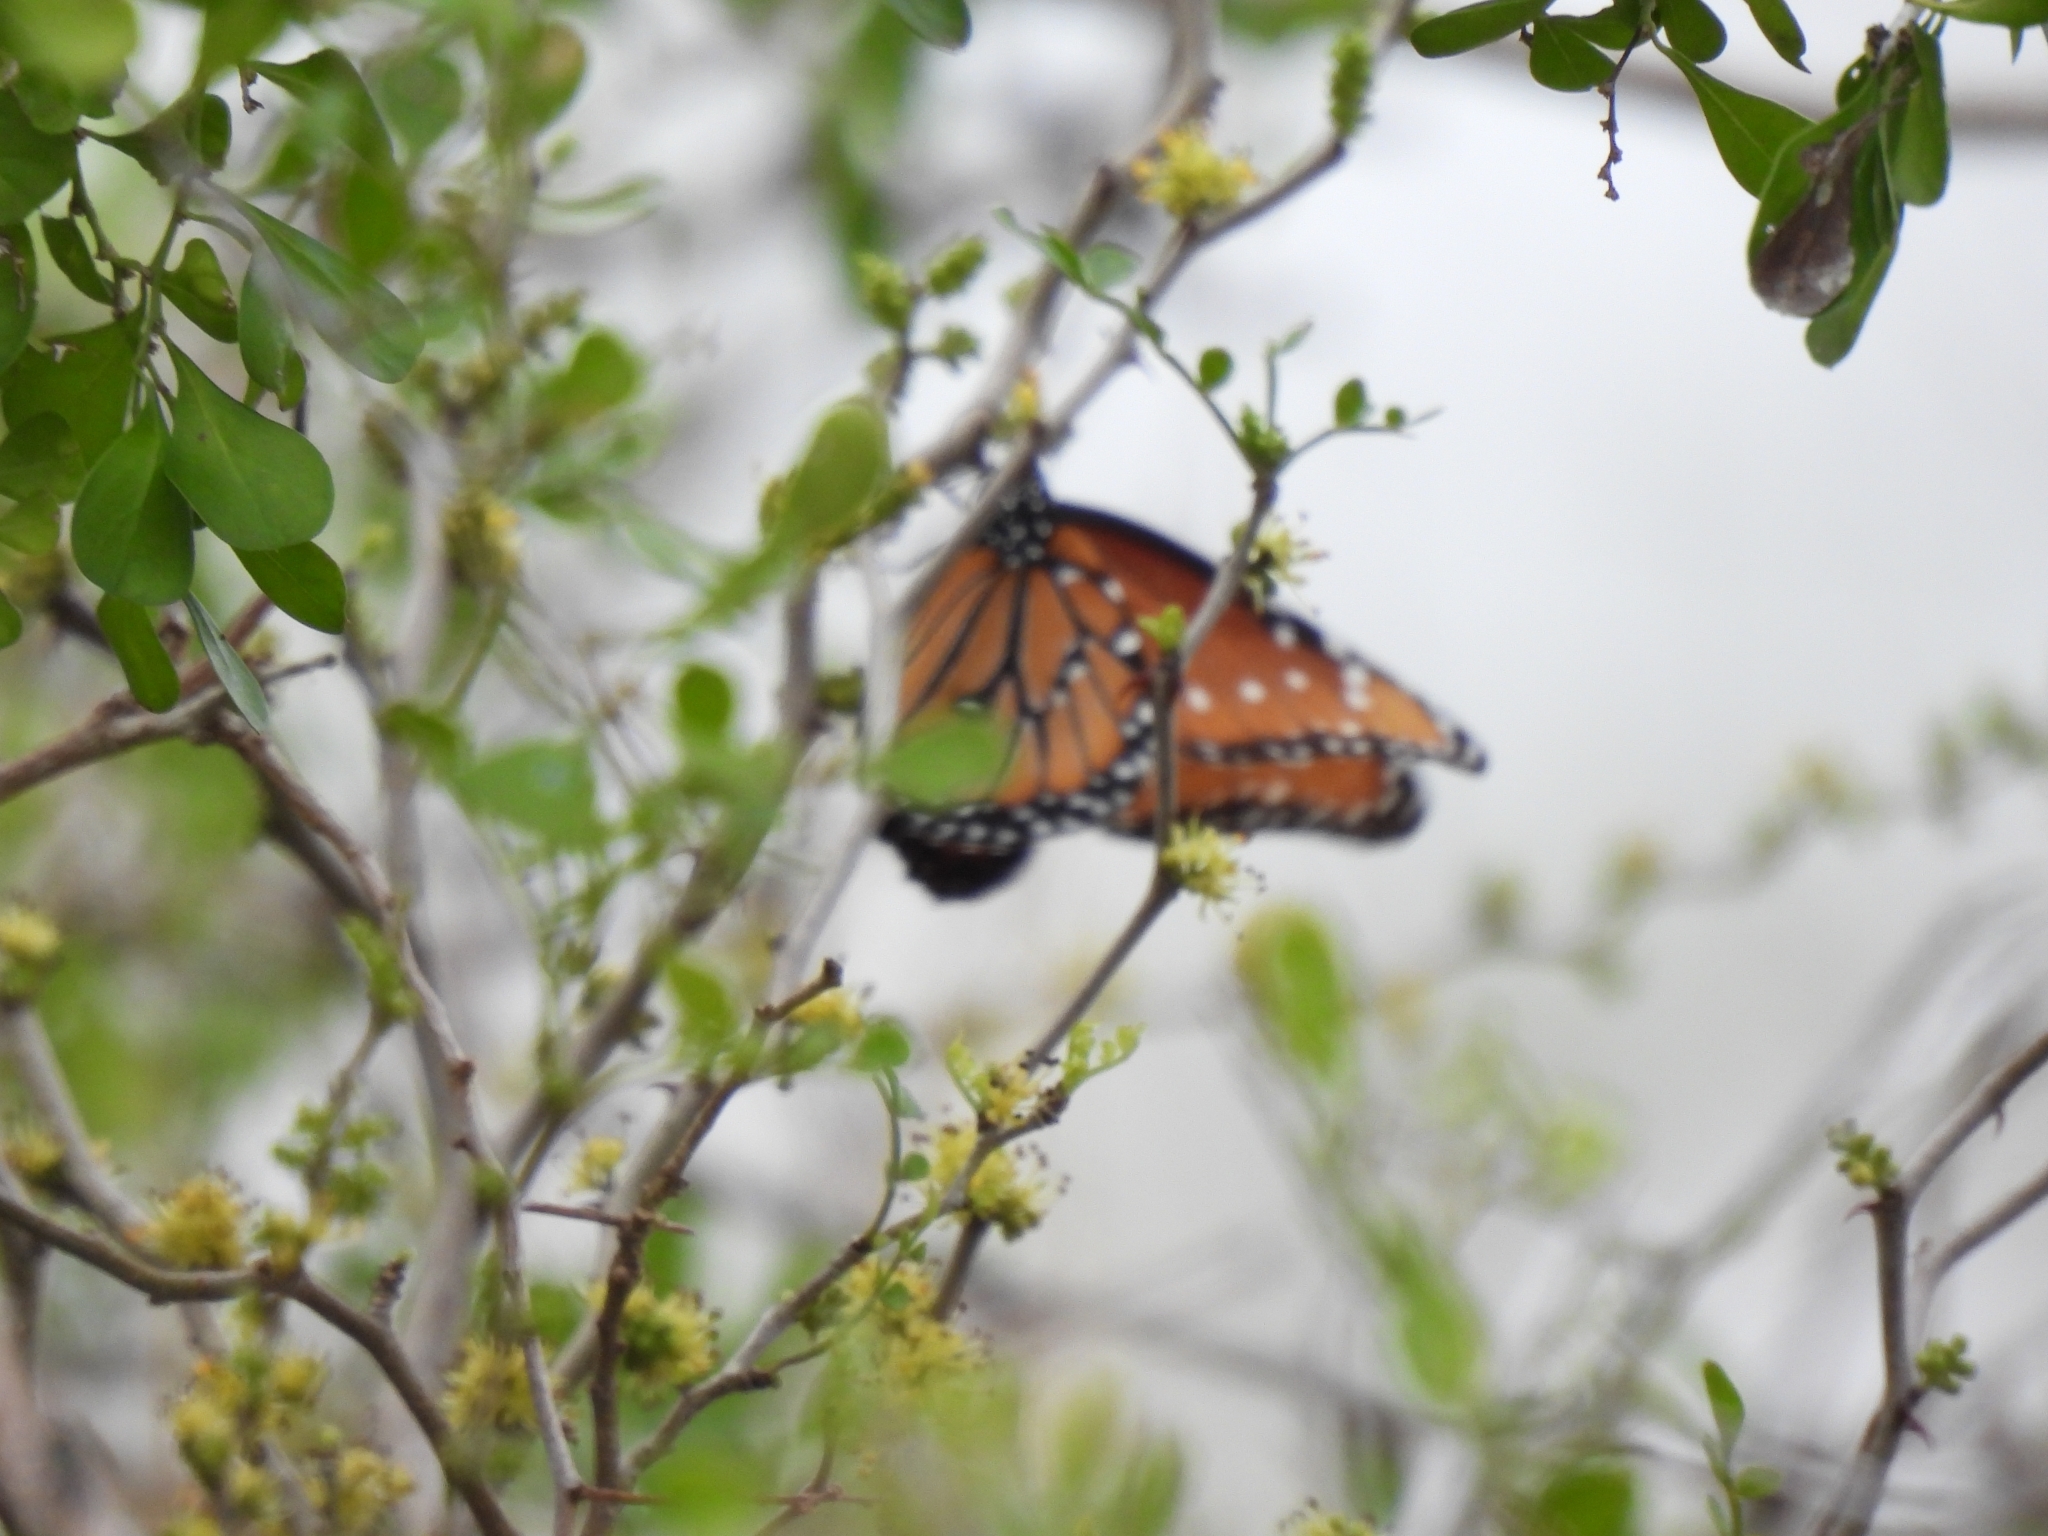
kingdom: Animalia
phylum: Arthropoda
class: Insecta
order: Lepidoptera
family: Nymphalidae
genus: Danaus
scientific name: Danaus gilippus
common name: Queen
